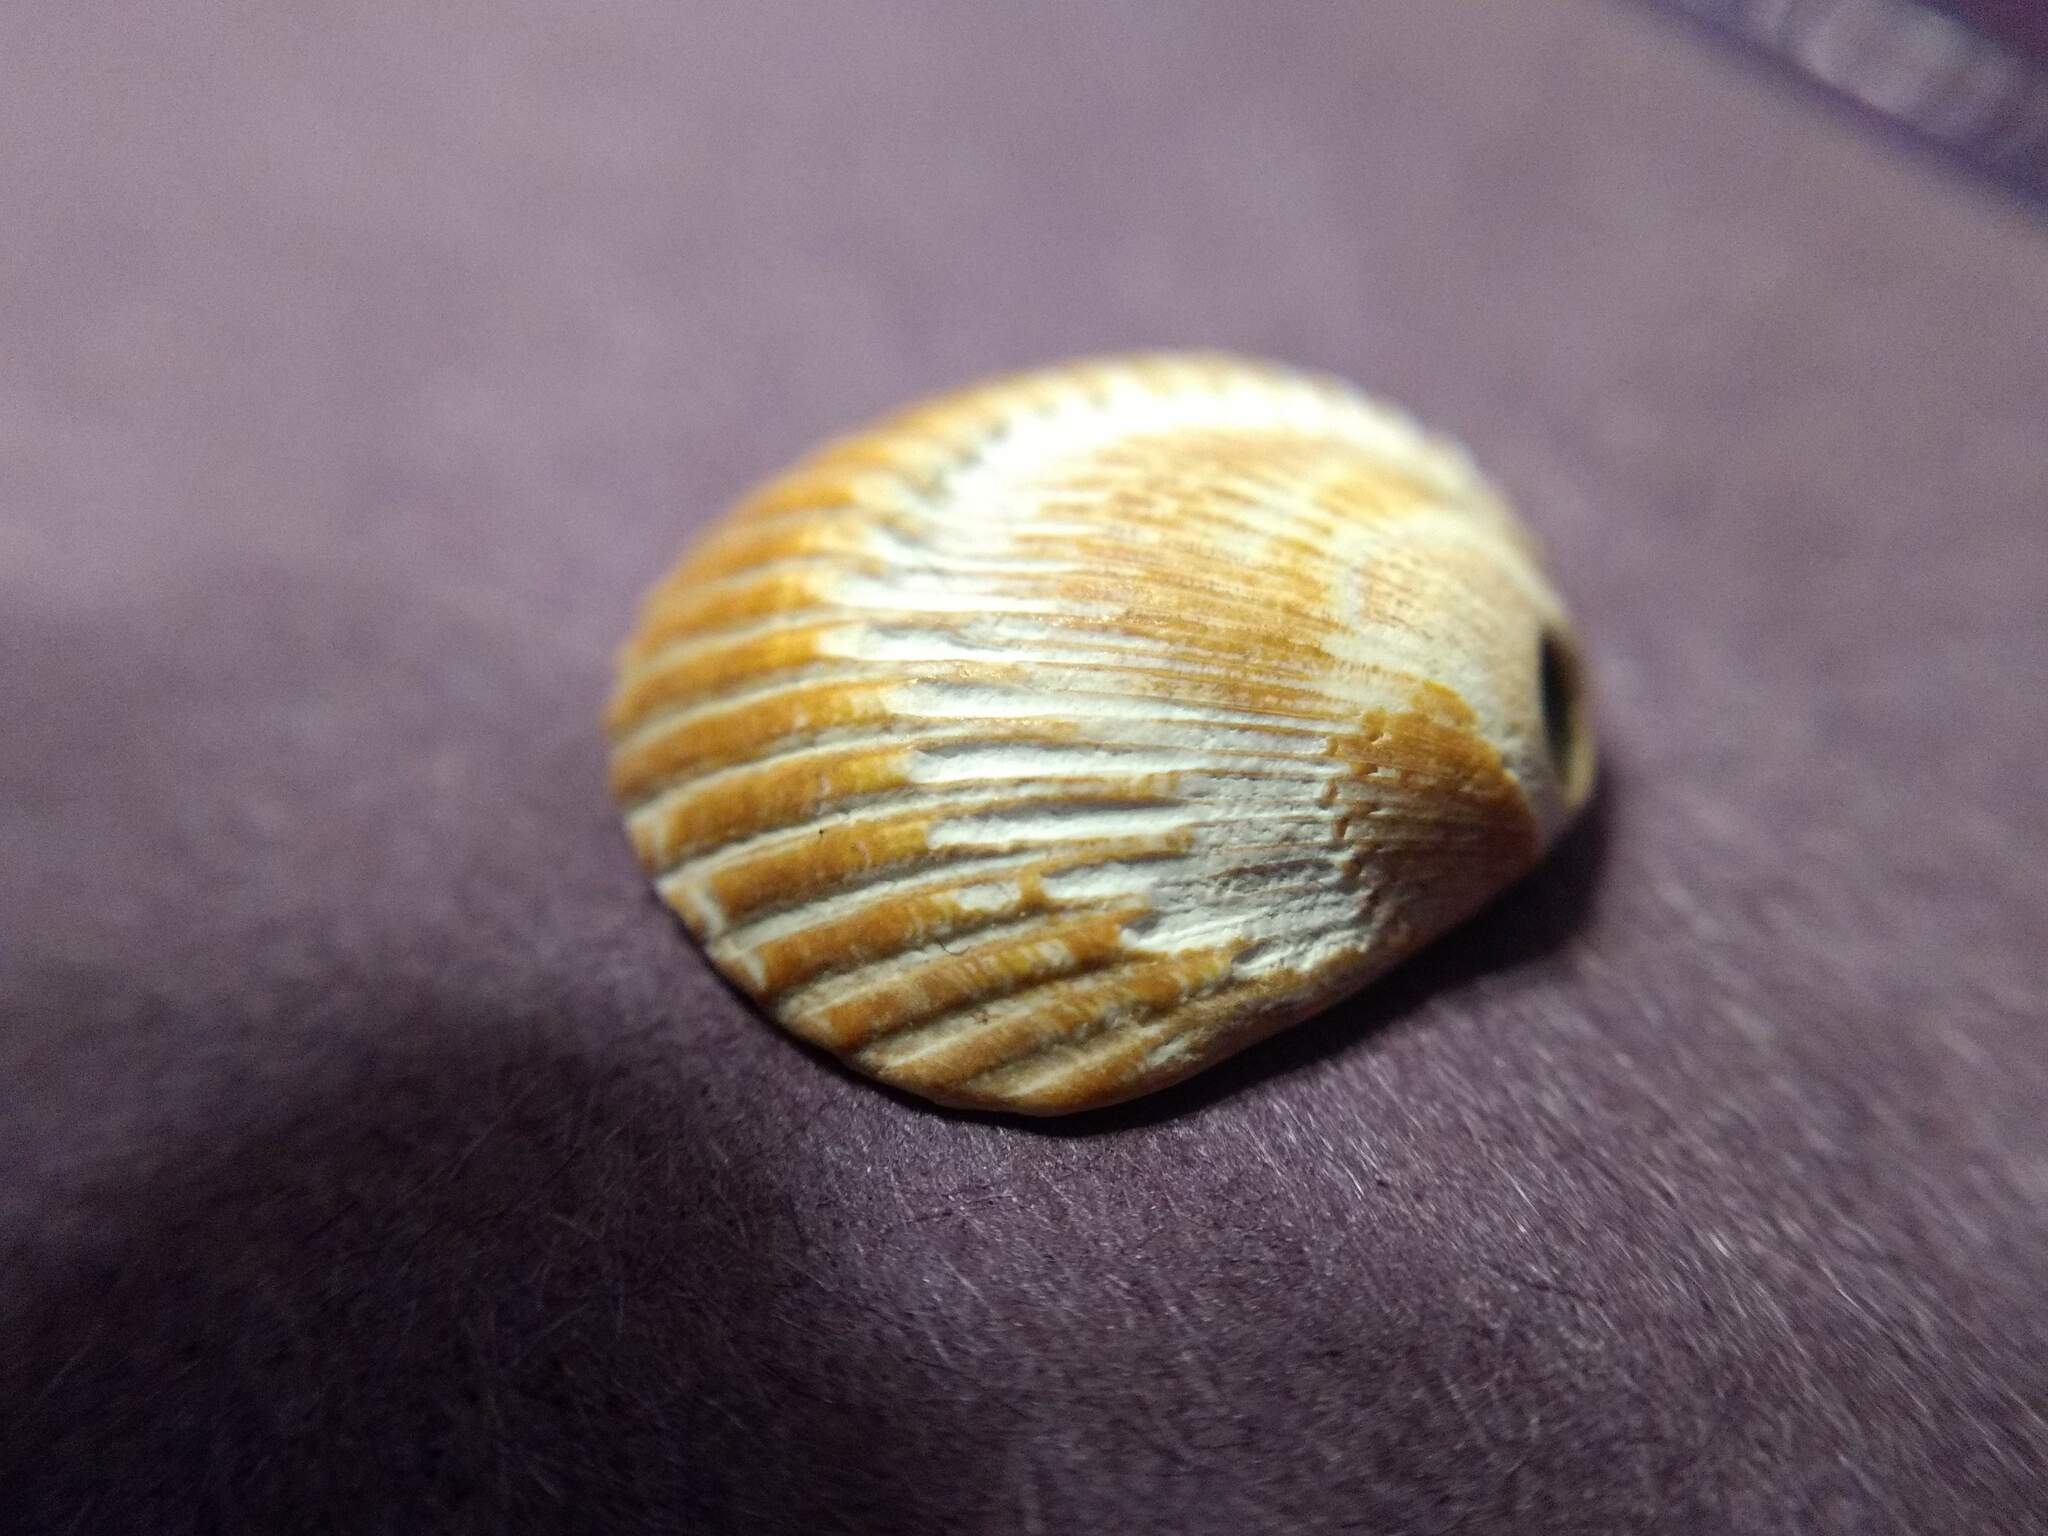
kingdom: Animalia
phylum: Mollusca
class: Bivalvia
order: Arcida
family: Arcidae
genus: Lunarca
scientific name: Lunarca ovalis
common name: Blood ark
